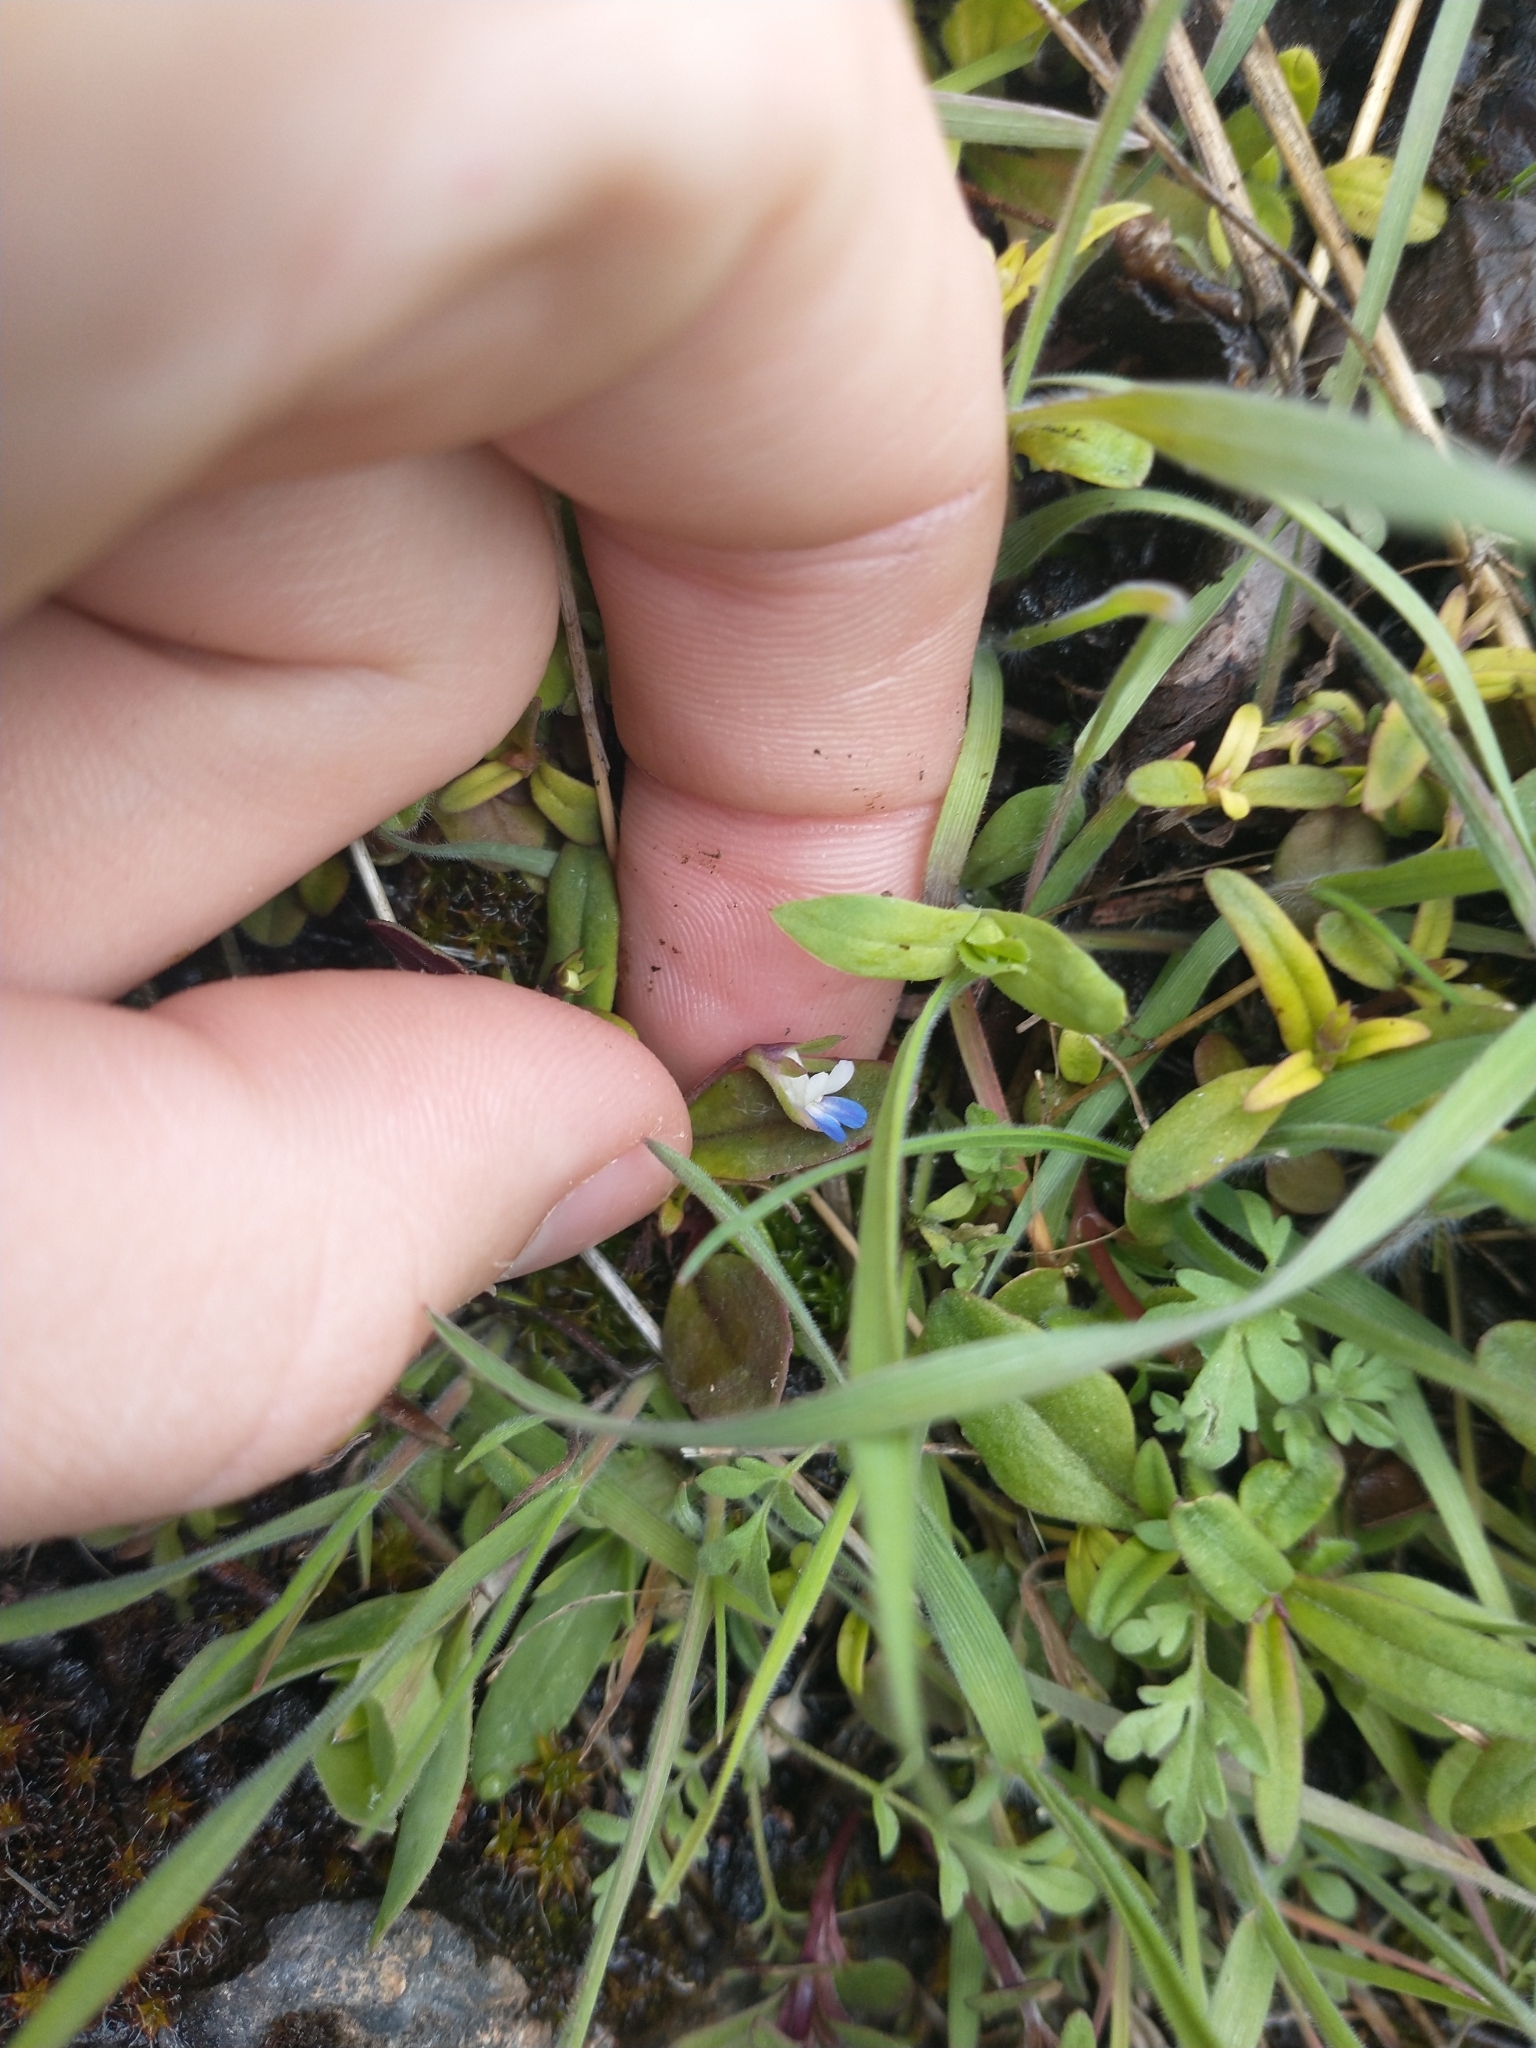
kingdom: Plantae
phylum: Tracheophyta
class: Magnoliopsida
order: Lamiales
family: Plantaginaceae
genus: Collinsia
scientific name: Collinsia parviflora
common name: Blue-lips
